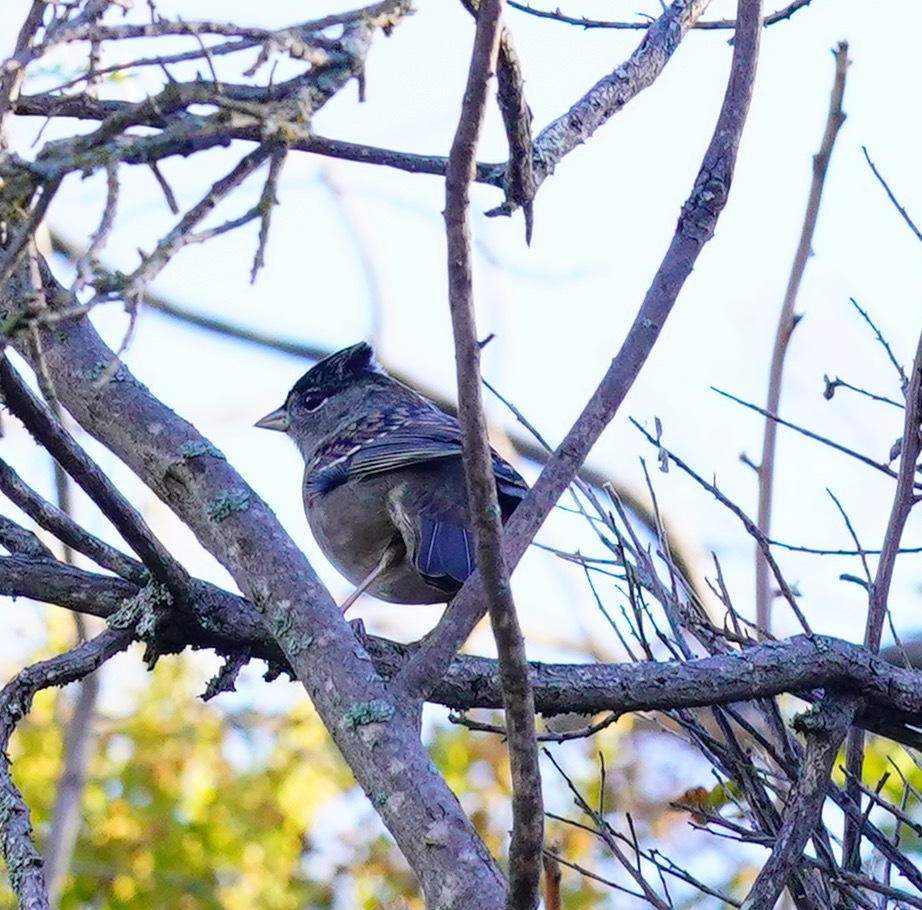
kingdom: Animalia
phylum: Chordata
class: Aves
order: Passeriformes
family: Passerellidae
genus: Zonotrichia
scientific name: Zonotrichia atricapilla
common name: Golden-crowned sparrow
